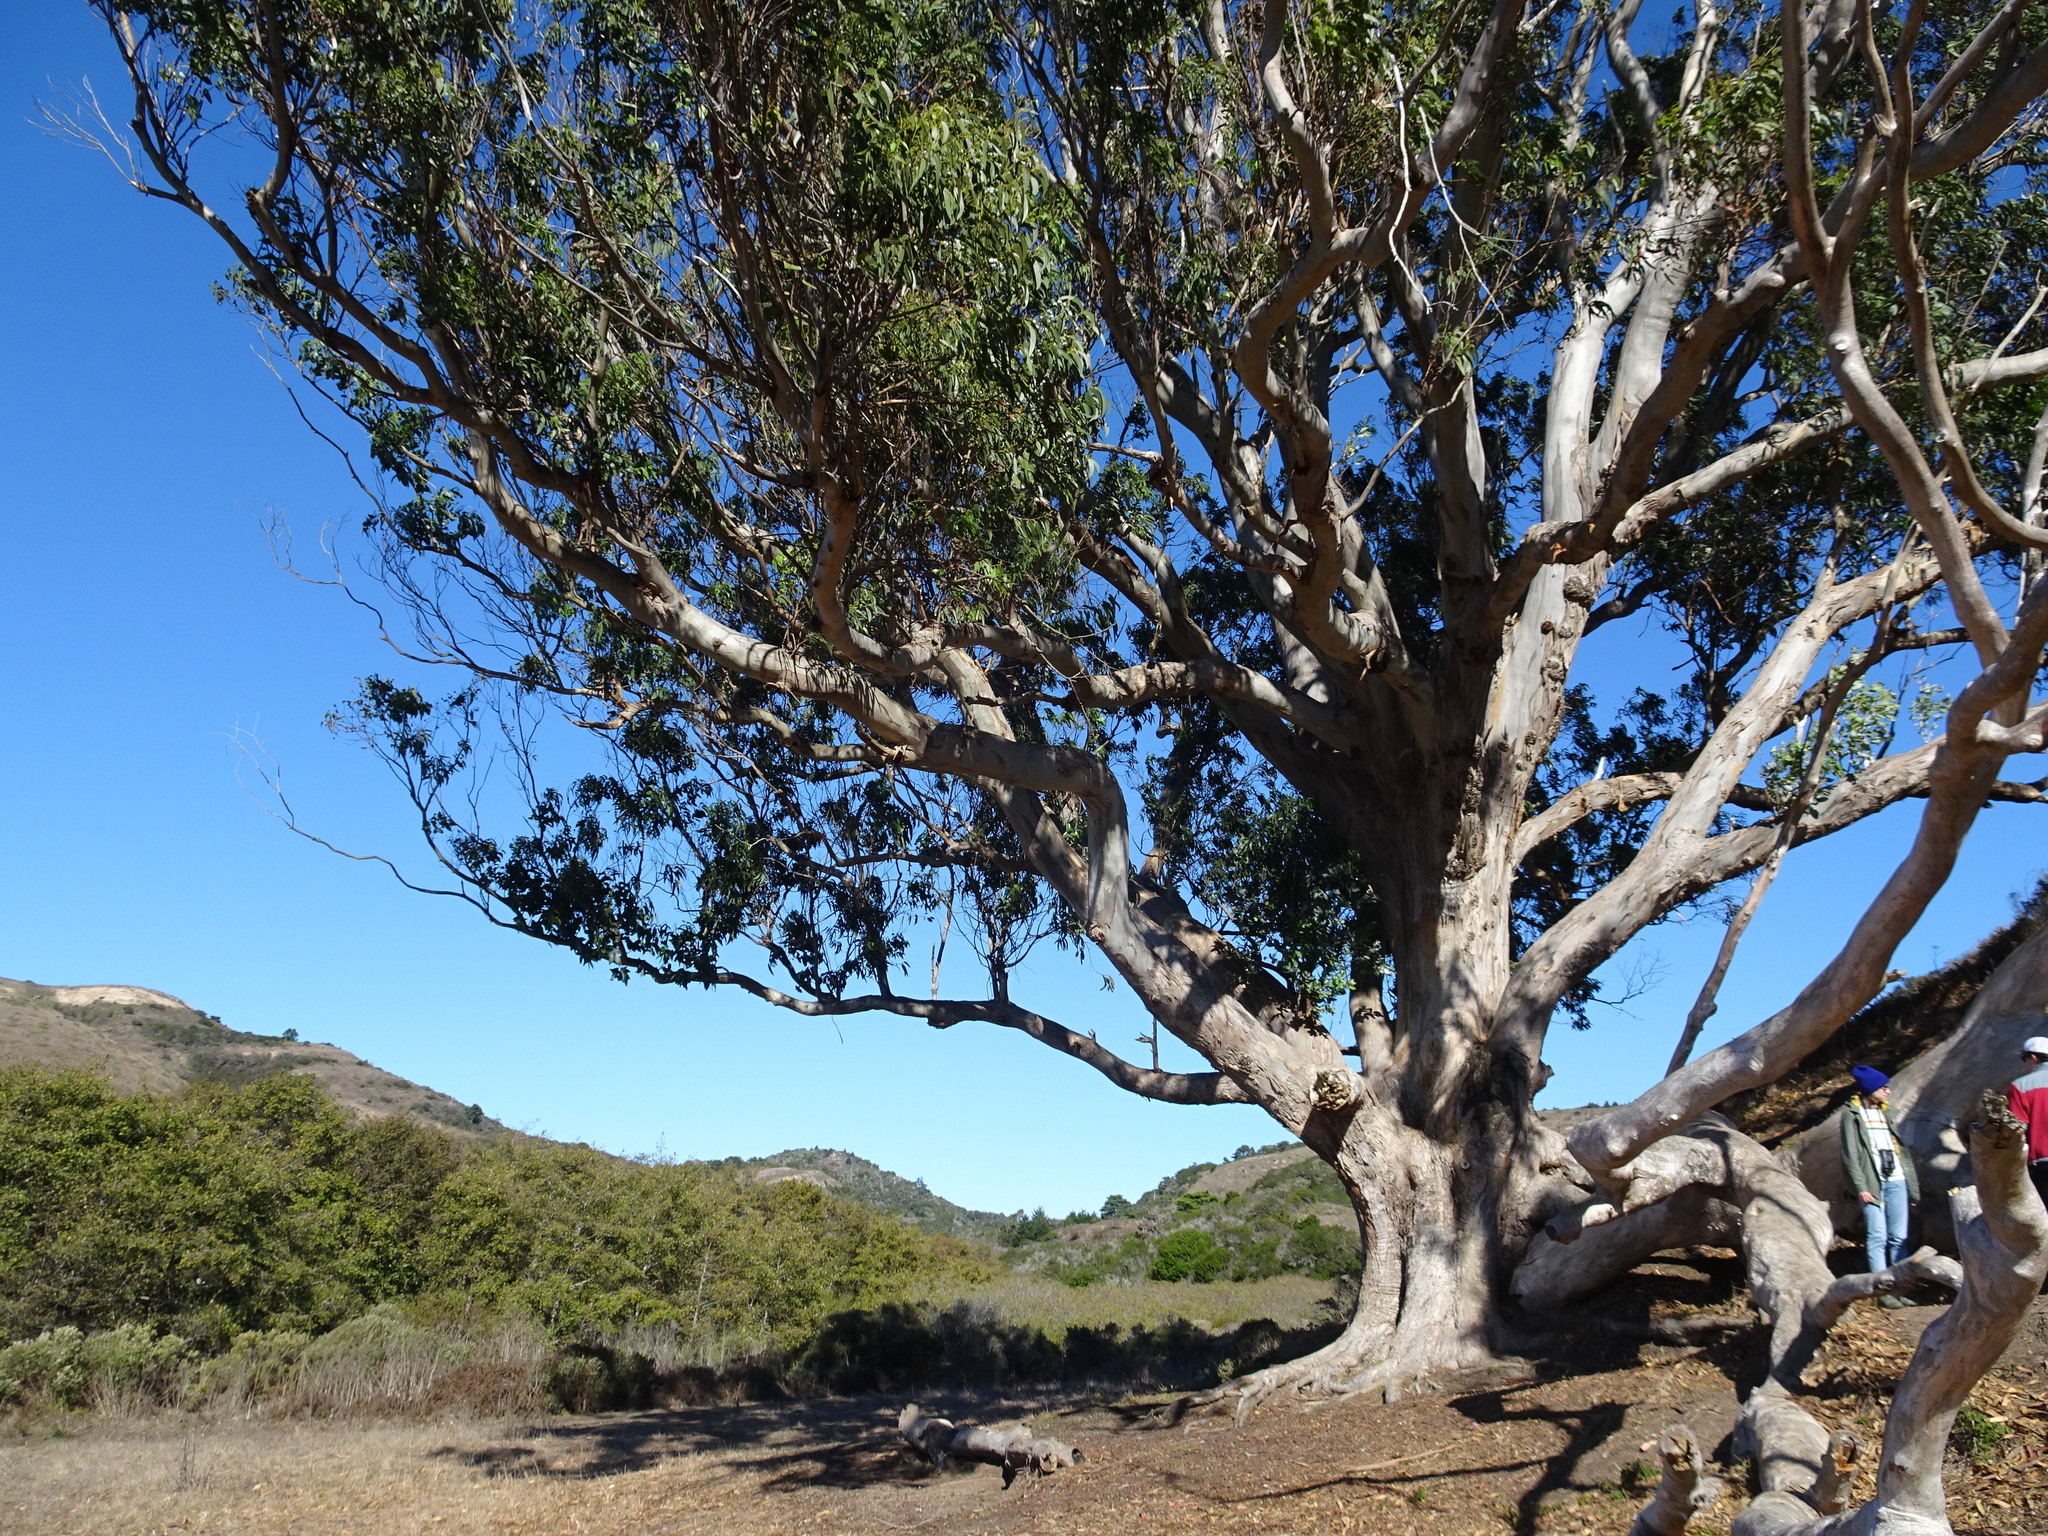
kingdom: Plantae
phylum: Tracheophyta
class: Magnoliopsida
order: Myrtales
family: Myrtaceae
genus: Eucalyptus
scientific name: Eucalyptus globulus
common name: Southern blue-gum
